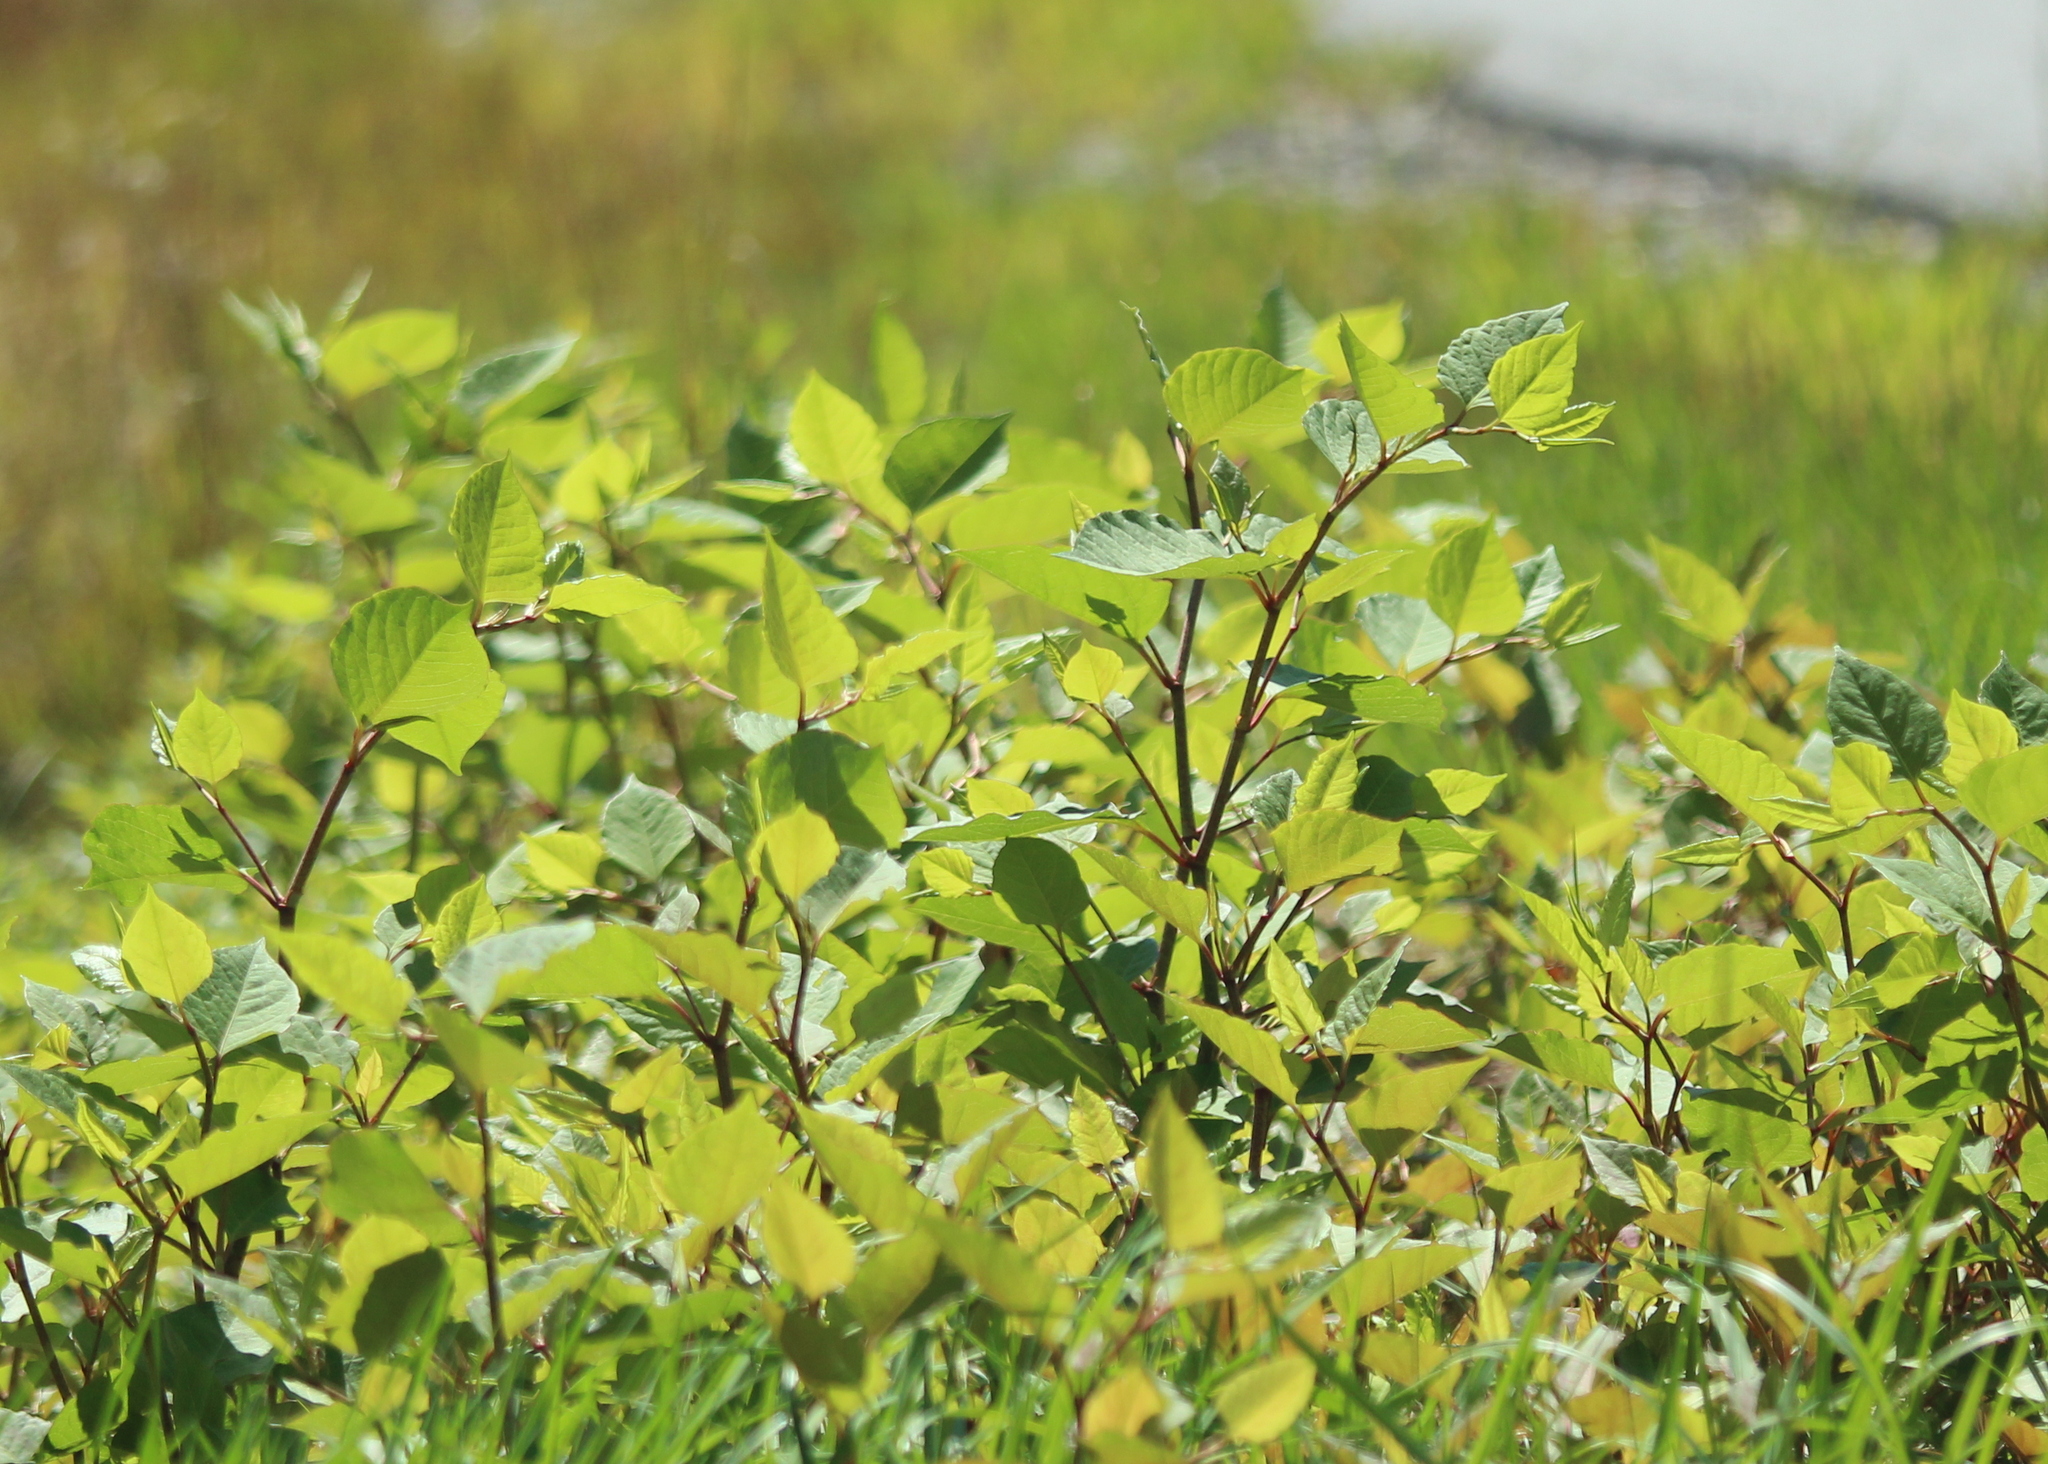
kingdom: Plantae
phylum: Tracheophyta
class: Magnoliopsida
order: Caryophyllales
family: Polygonaceae
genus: Reynoutria
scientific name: Reynoutria japonica
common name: Japanese knotweed
